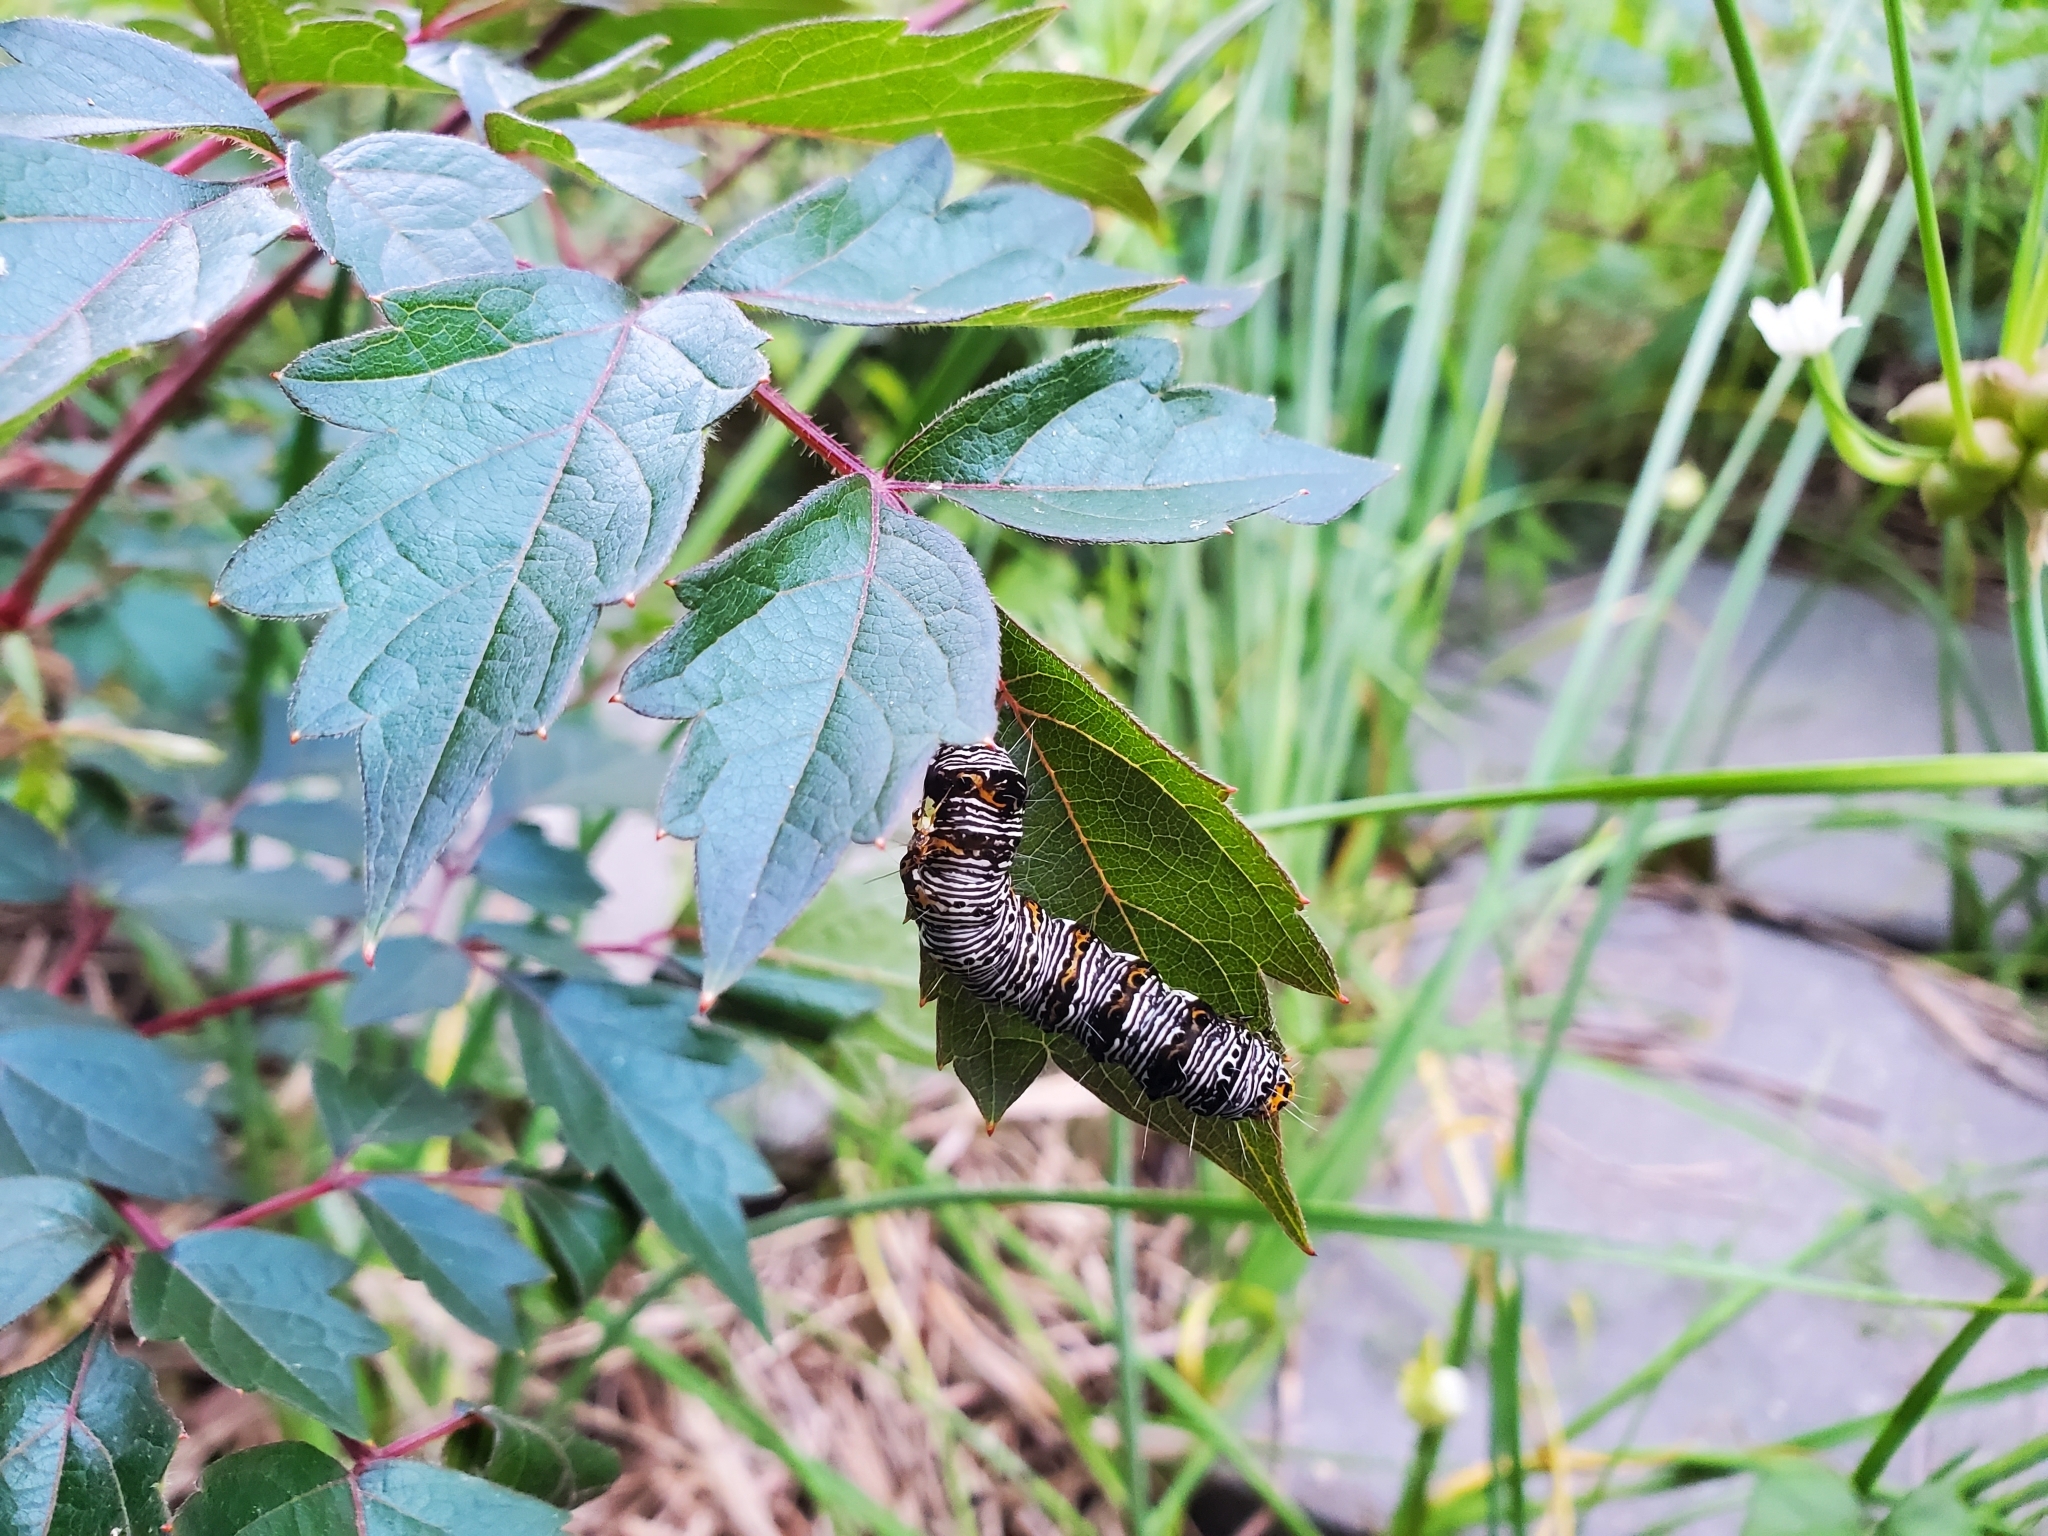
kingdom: Animalia
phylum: Arthropoda
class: Insecta
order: Lepidoptera
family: Noctuidae
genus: Alypia
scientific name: Alypia octomaculata
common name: Eight-spotted forester
